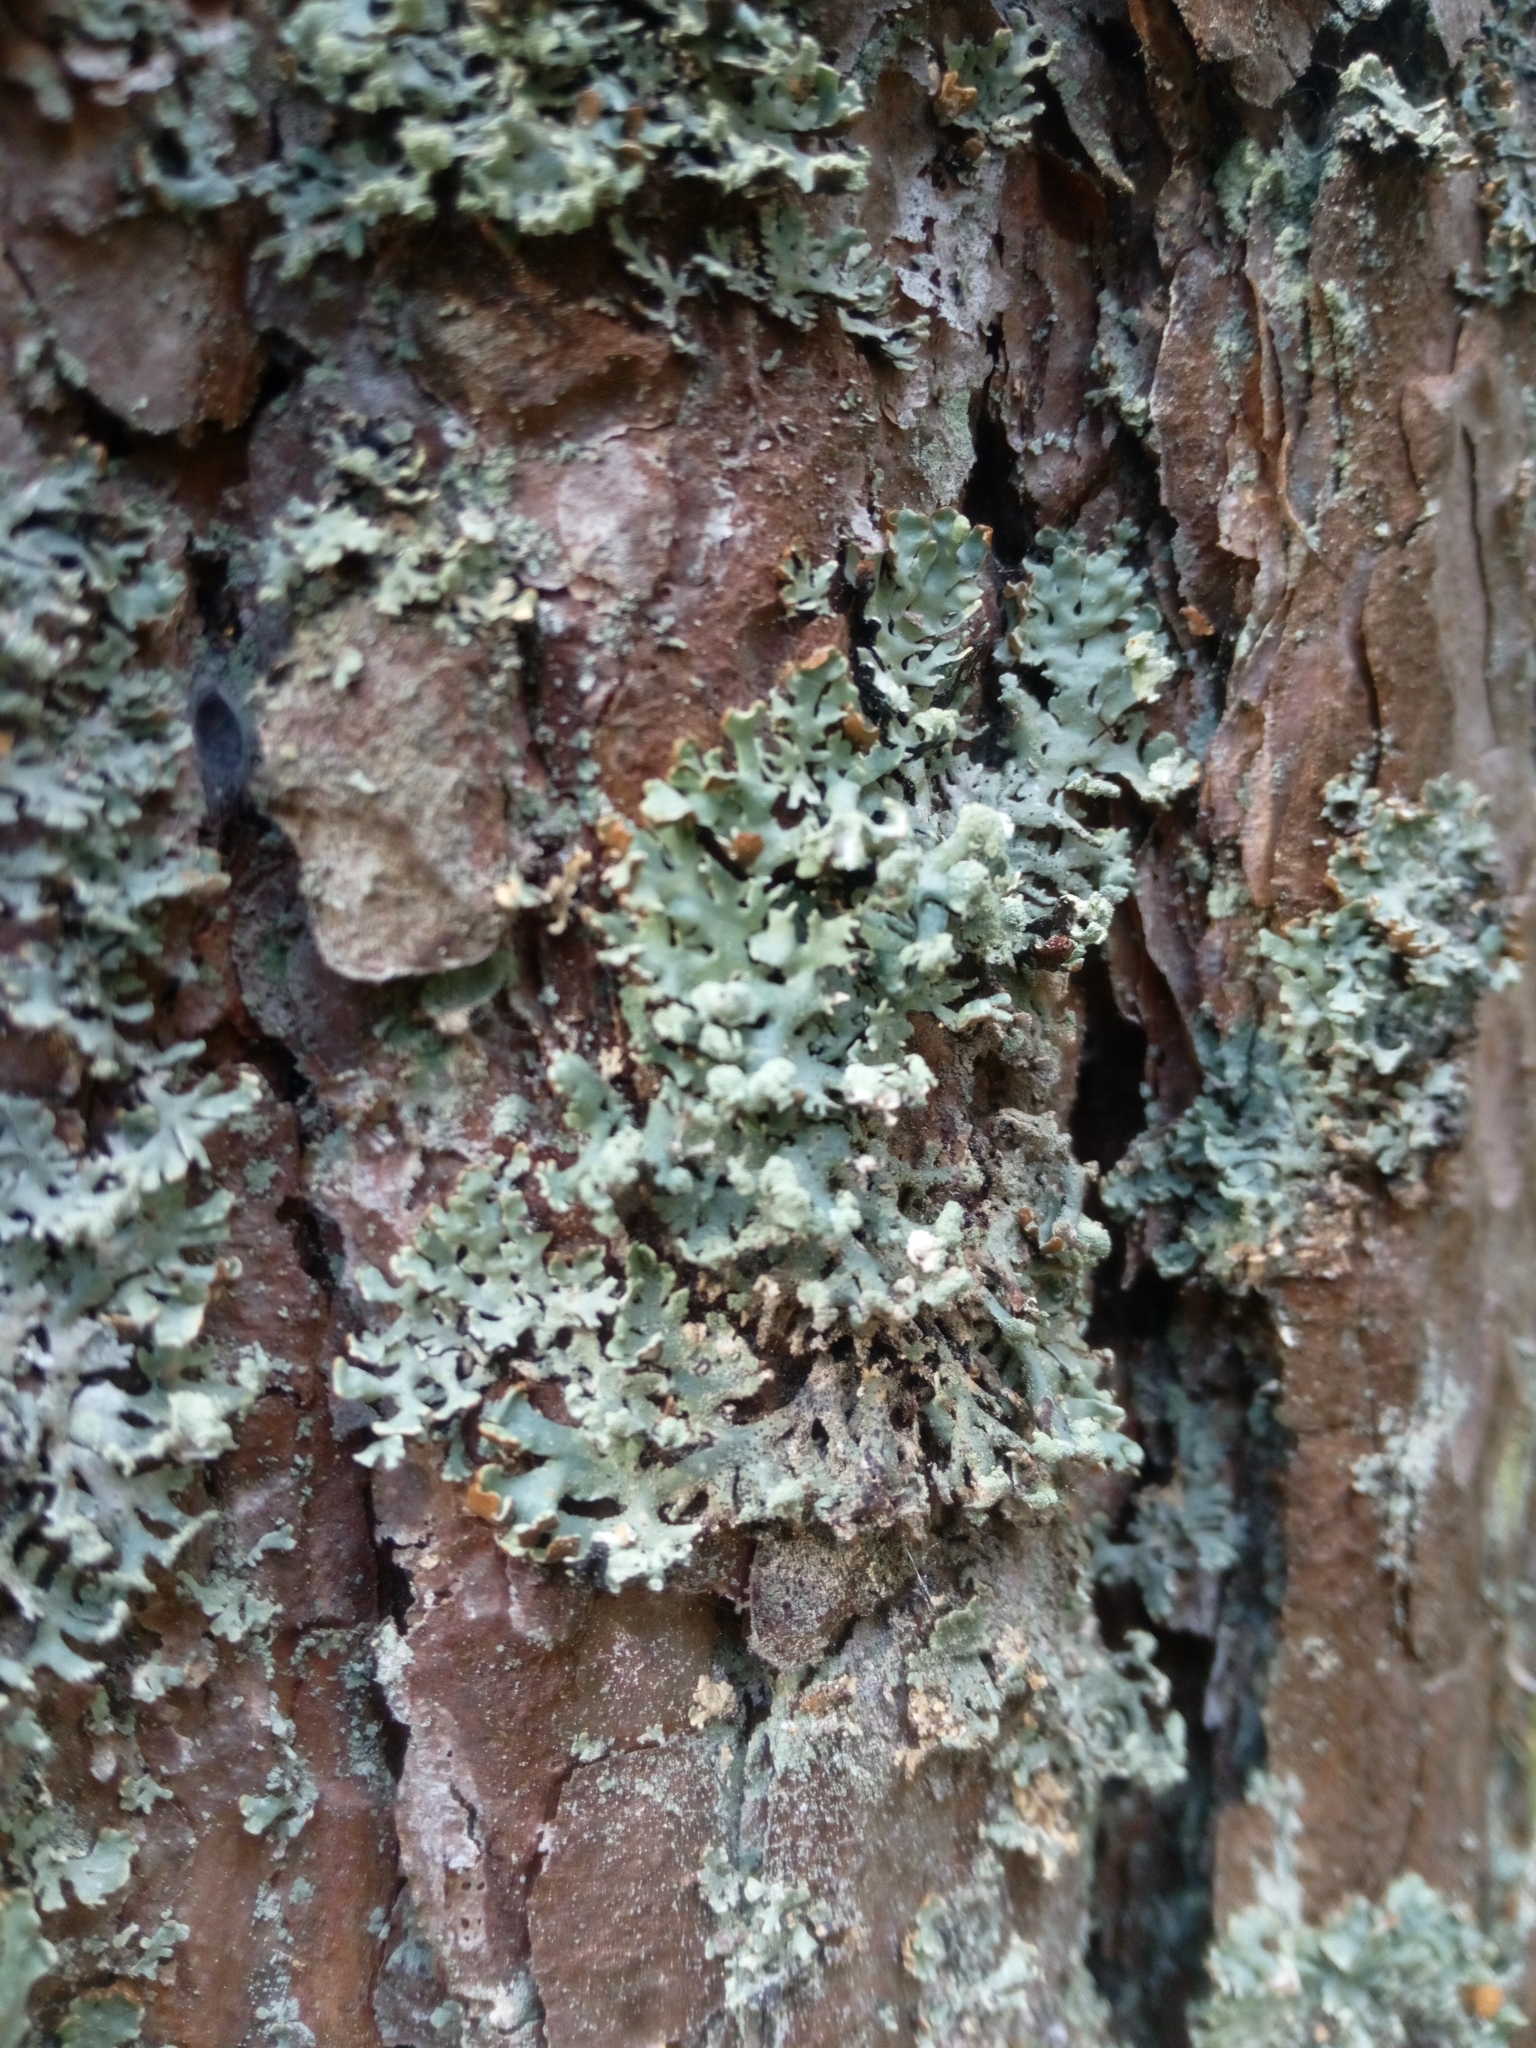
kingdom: Fungi
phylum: Ascomycota
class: Lecanoromycetes
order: Lecanorales
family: Parmeliaceae
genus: Hypogymnia
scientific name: Hypogymnia physodes
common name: Dark crottle
